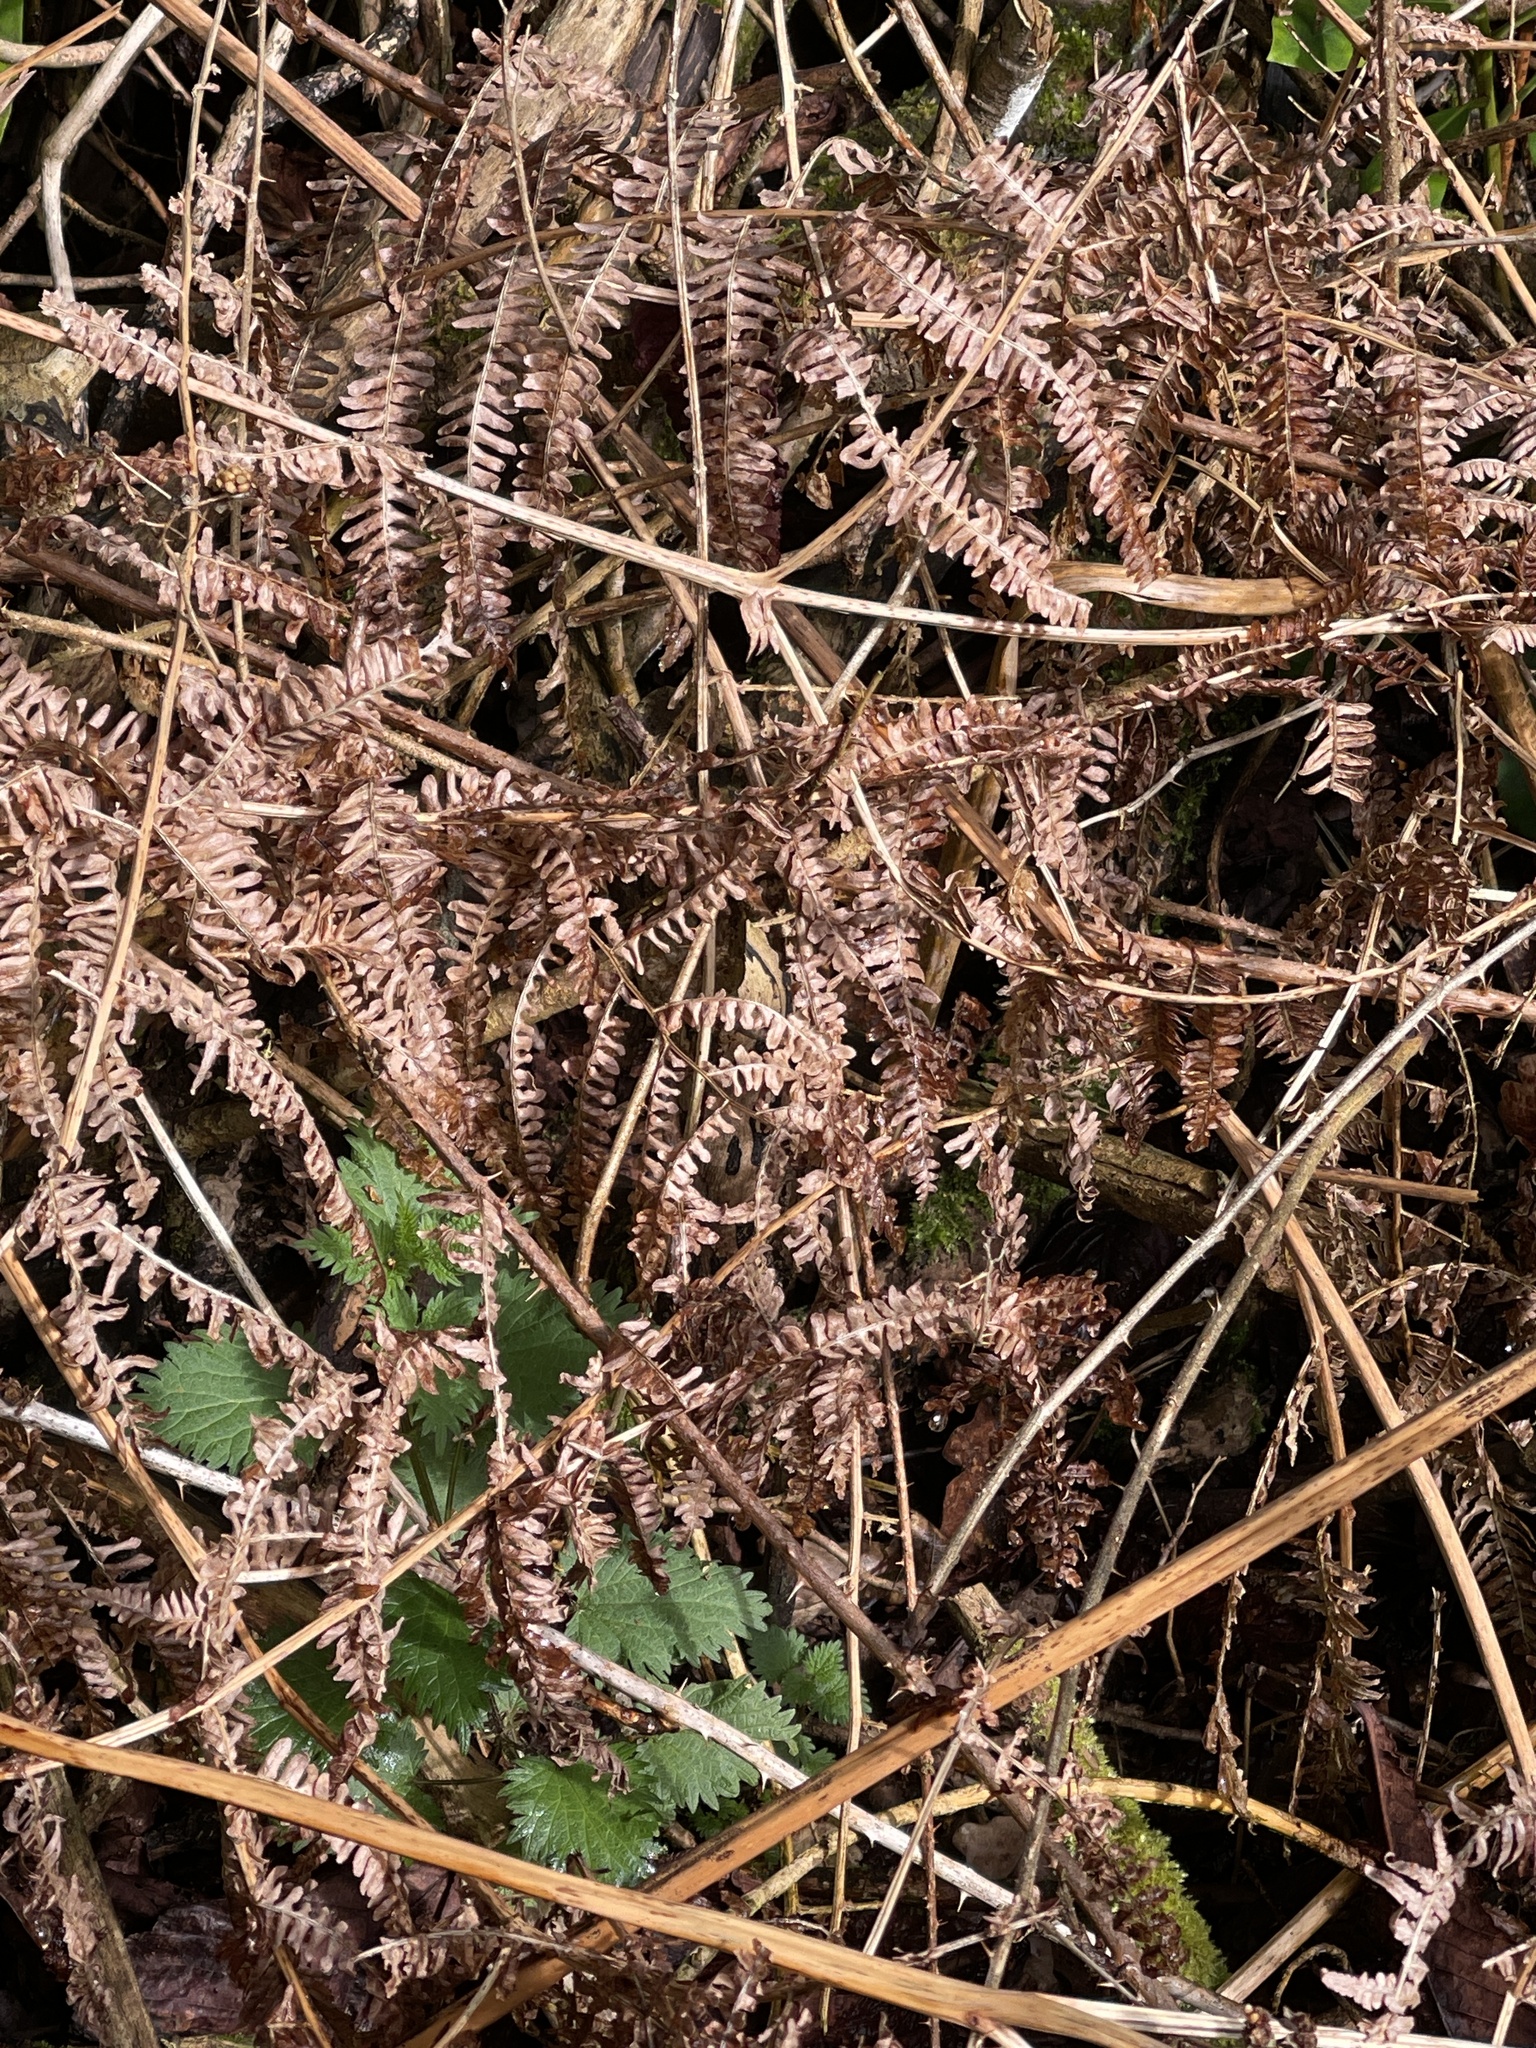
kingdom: Plantae
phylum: Tracheophyta
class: Polypodiopsida
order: Polypodiales
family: Dennstaedtiaceae
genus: Pteridium
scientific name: Pteridium aquilinum
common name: Bracken
